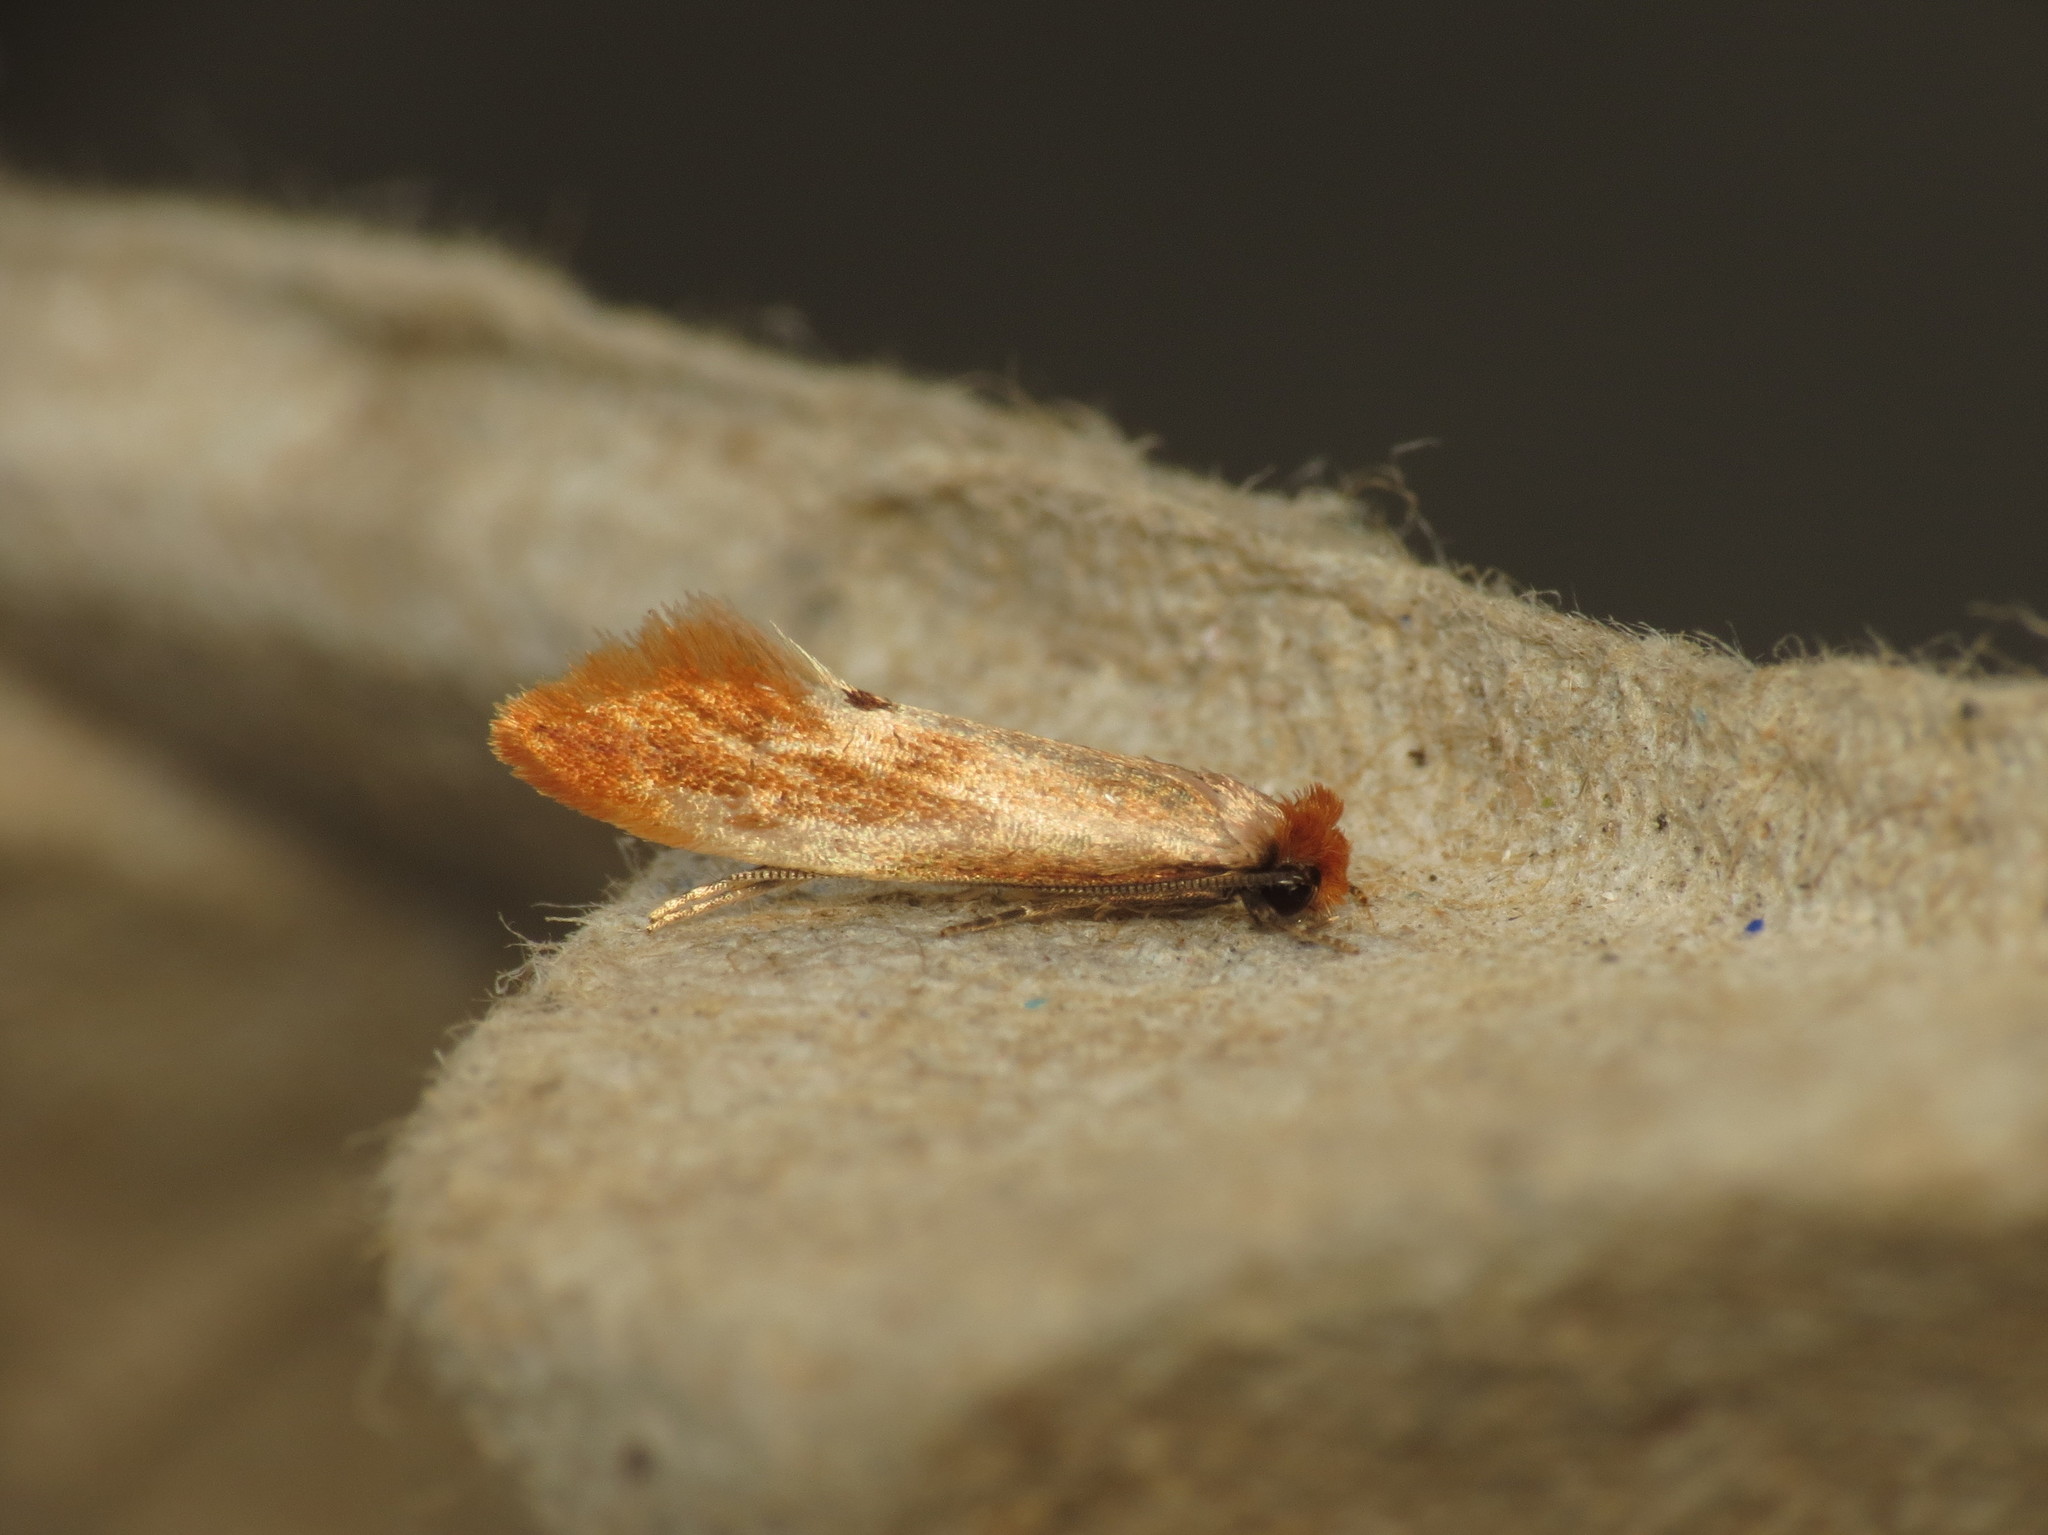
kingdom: Animalia
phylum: Arthropoda
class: Insecta
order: Lepidoptera
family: Tineidae
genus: Tinea
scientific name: Tinea semifulvella
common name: Fulvous clothes
